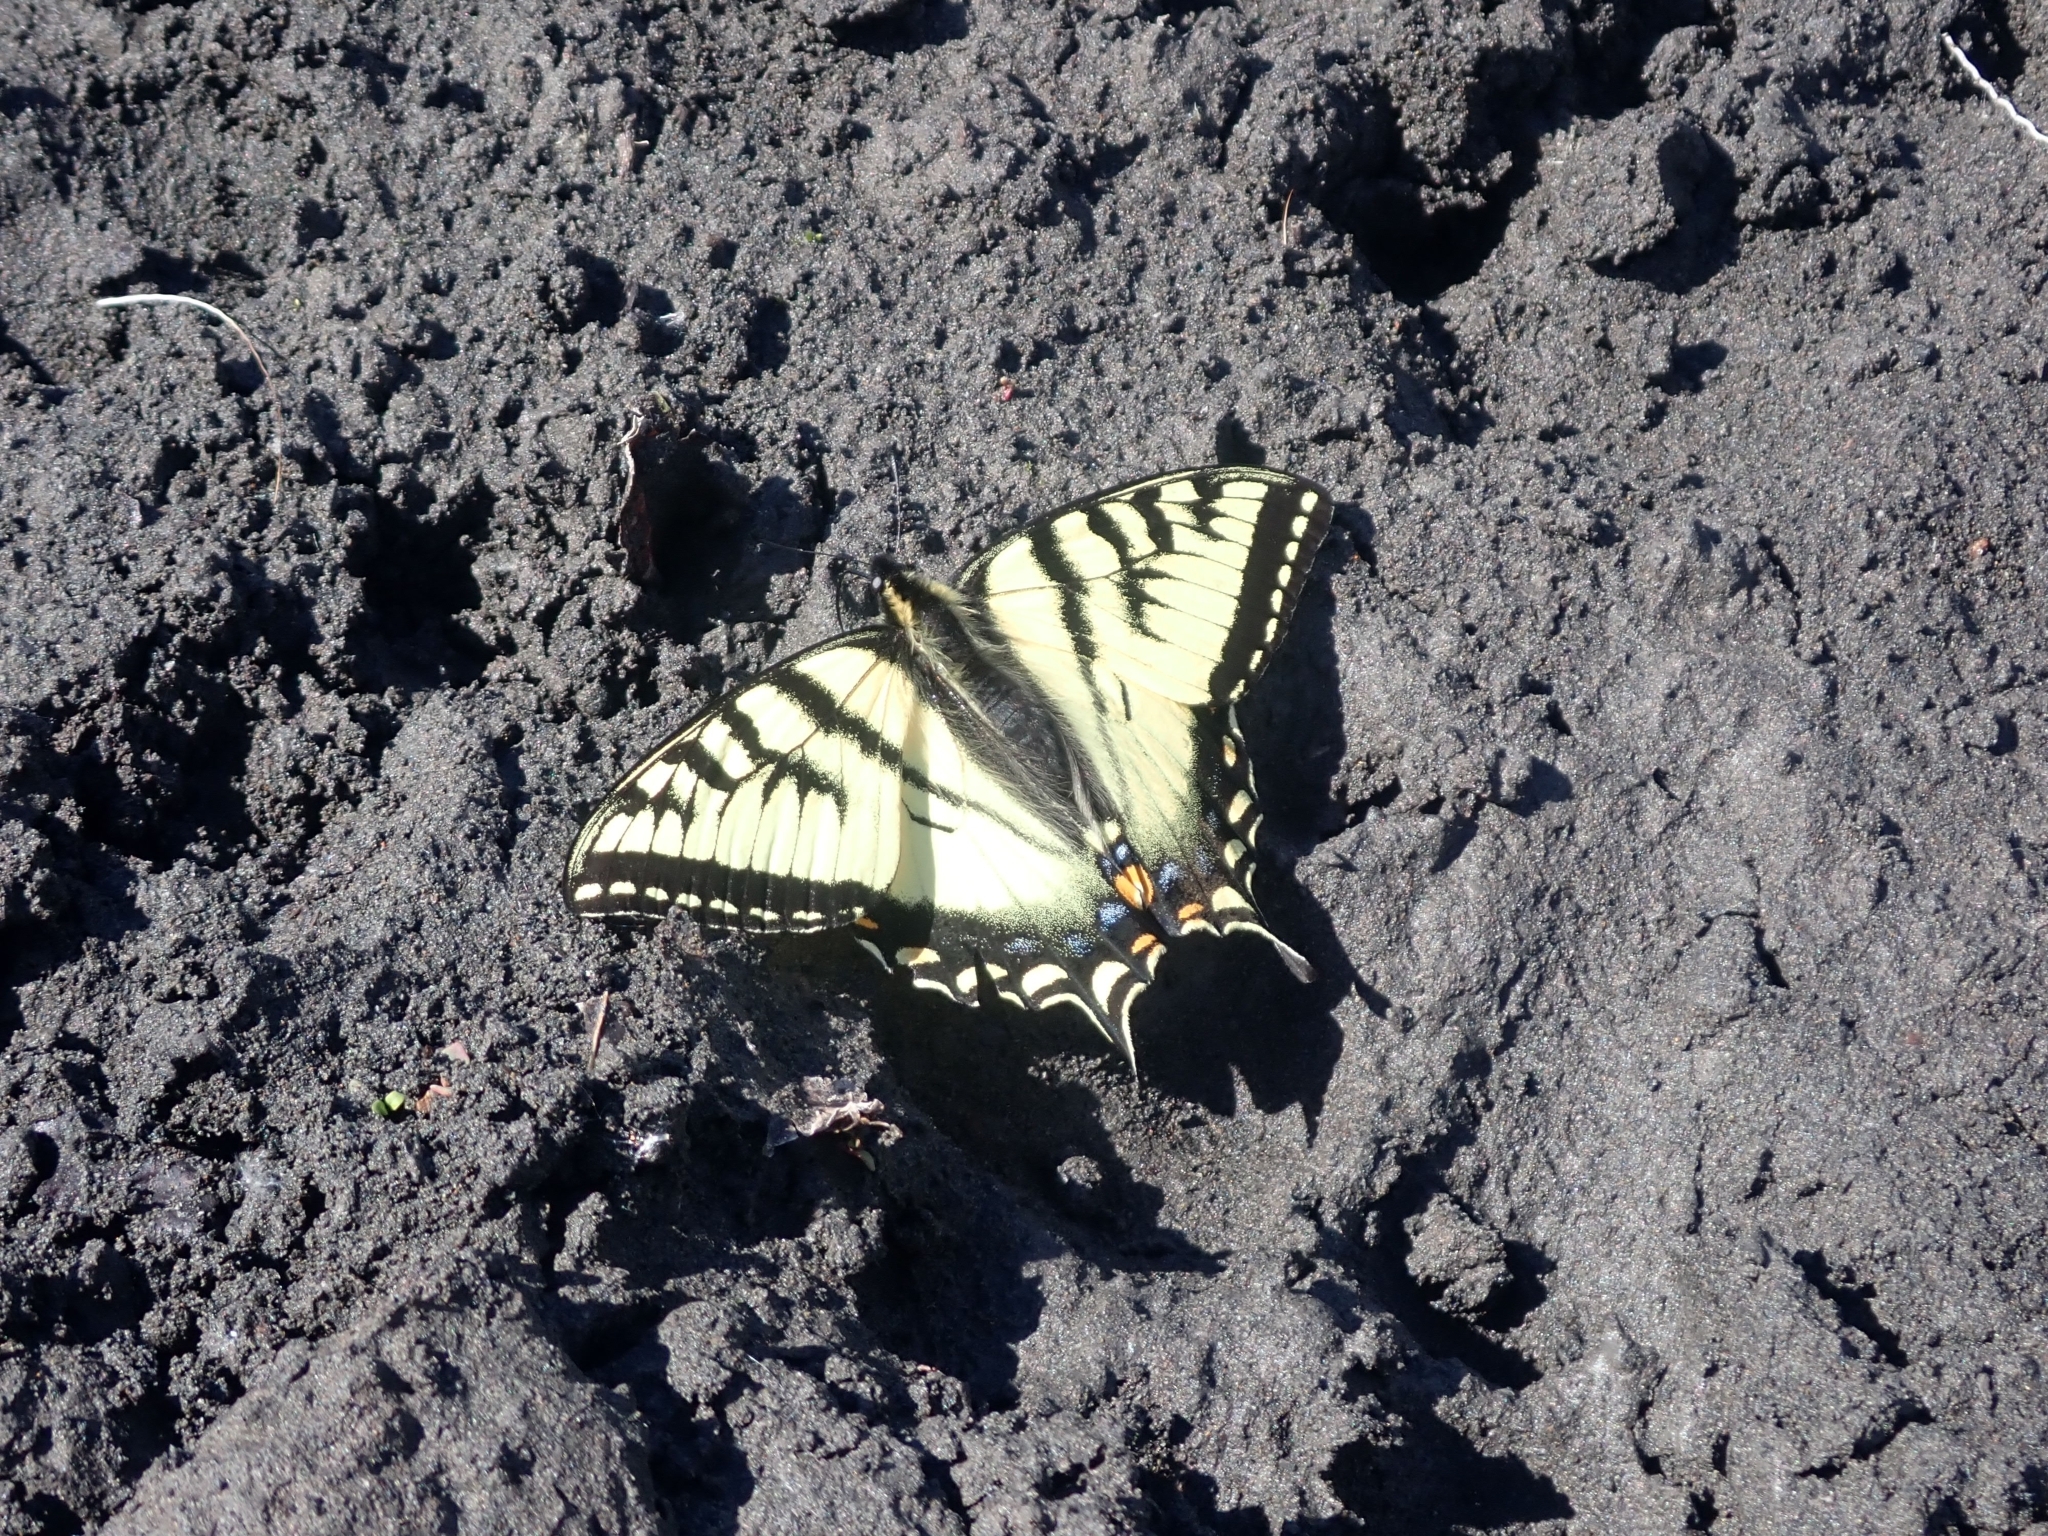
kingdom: Animalia
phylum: Arthropoda
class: Insecta
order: Lepidoptera
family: Papilionidae
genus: Papilio
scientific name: Papilio canadensis
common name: Canadian tiger swallowtail
